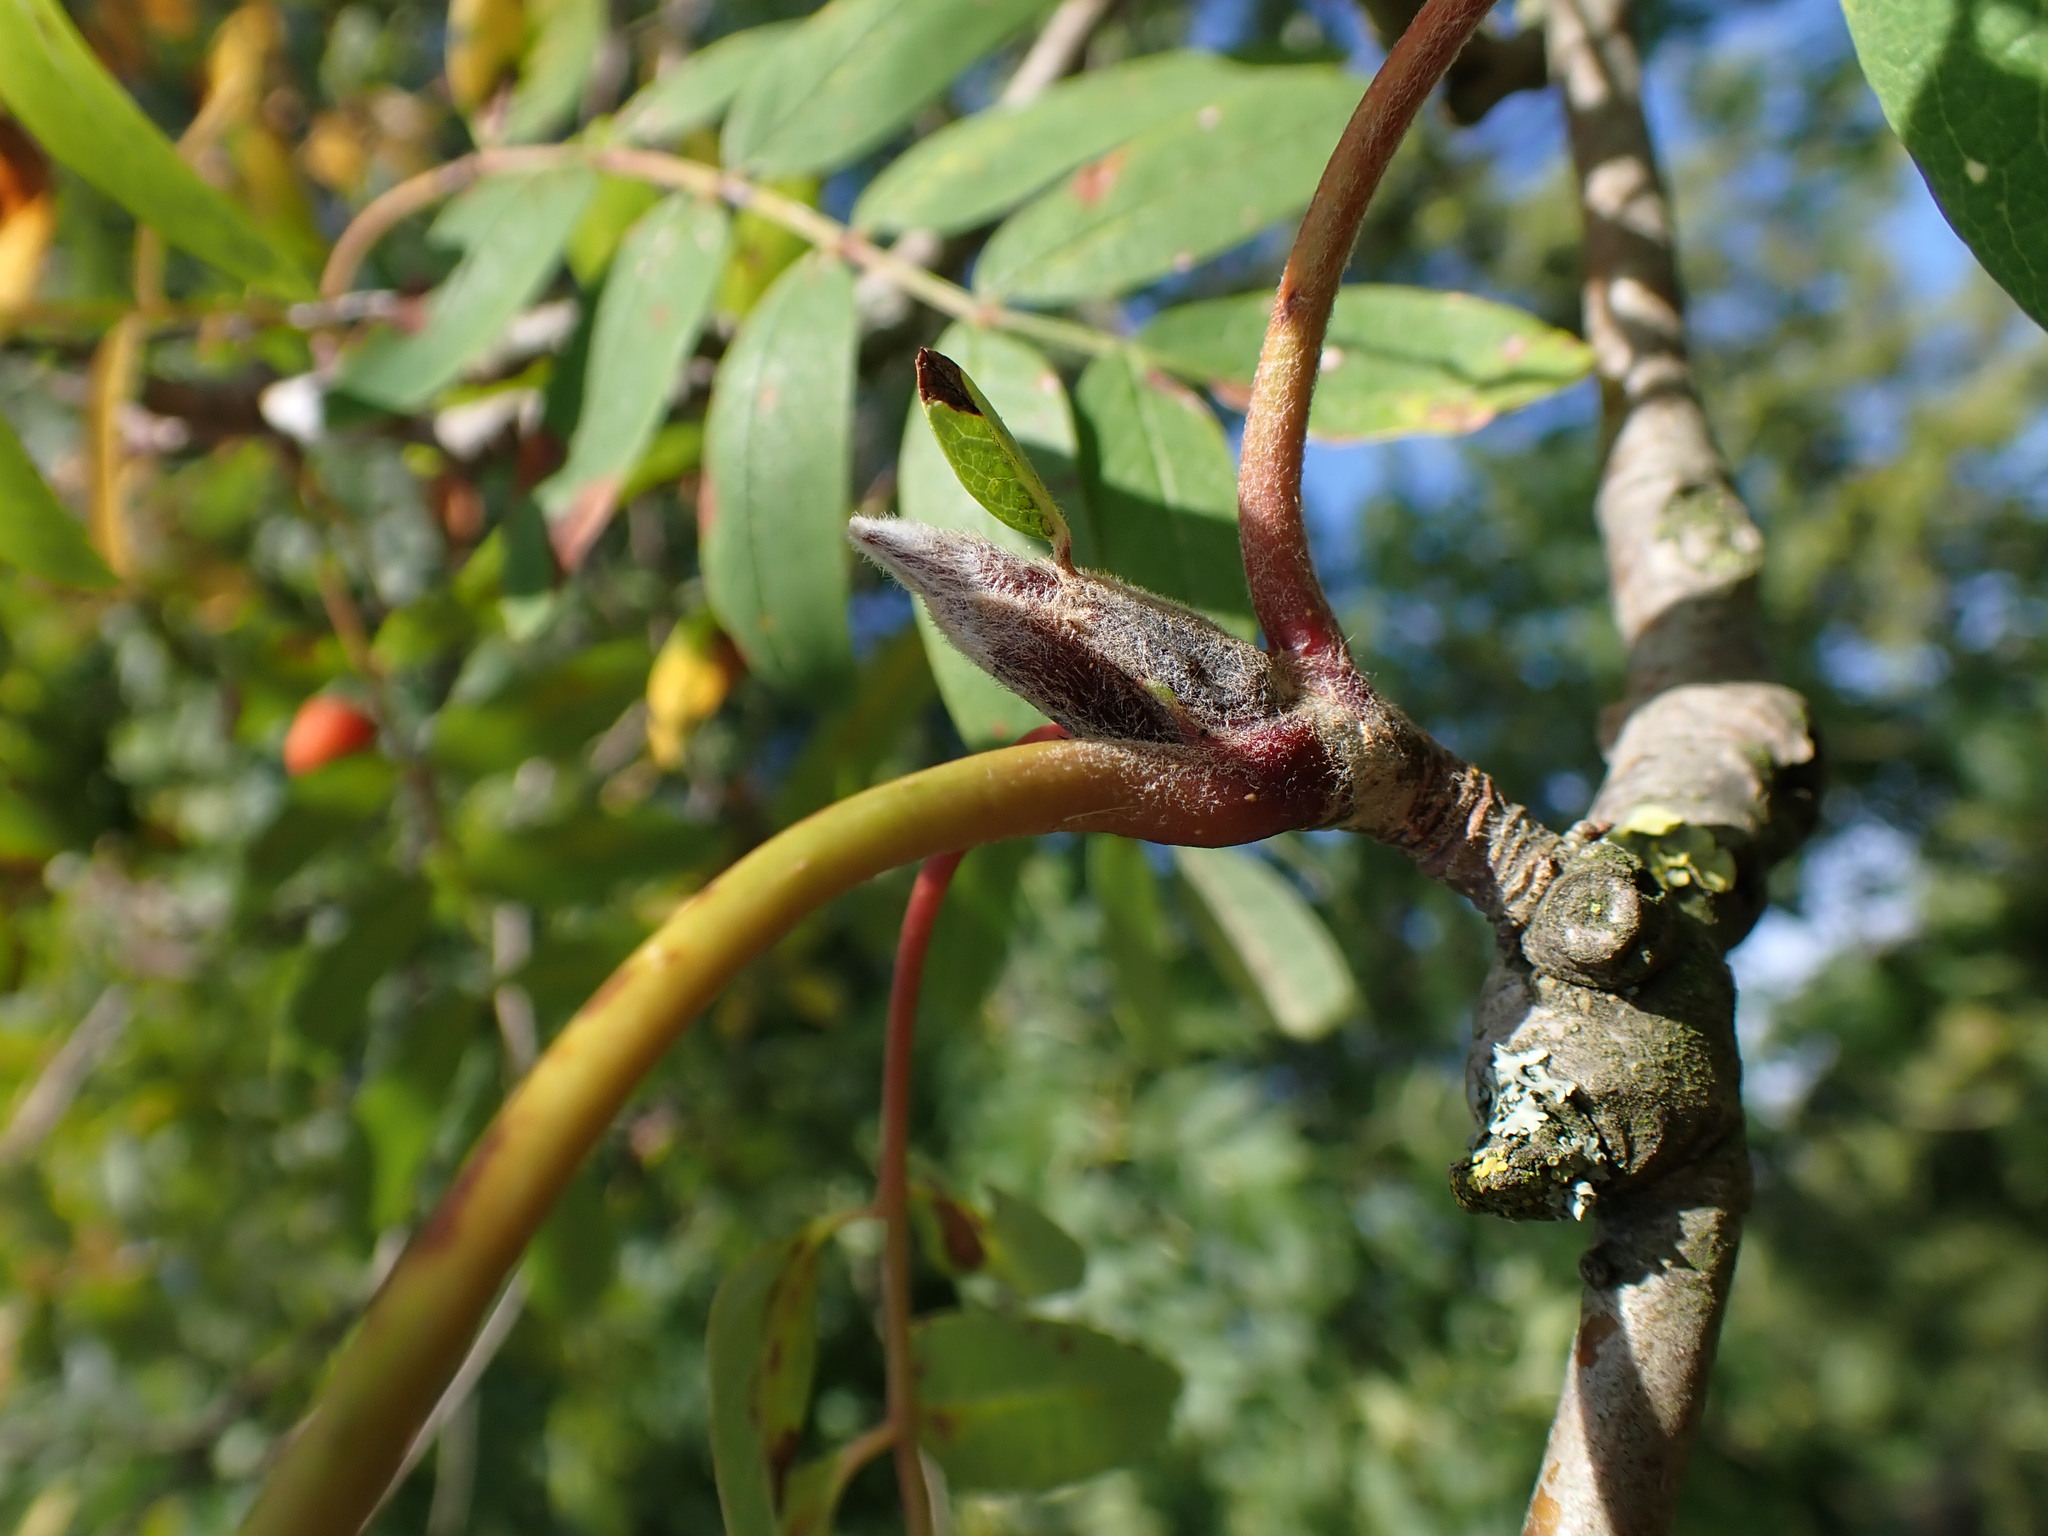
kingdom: Plantae
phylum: Tracheophyta
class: Magnoliopsida
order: Rosales
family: Rosaceae
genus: Sorbus
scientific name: Sorbus aucuparia
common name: Rowan
